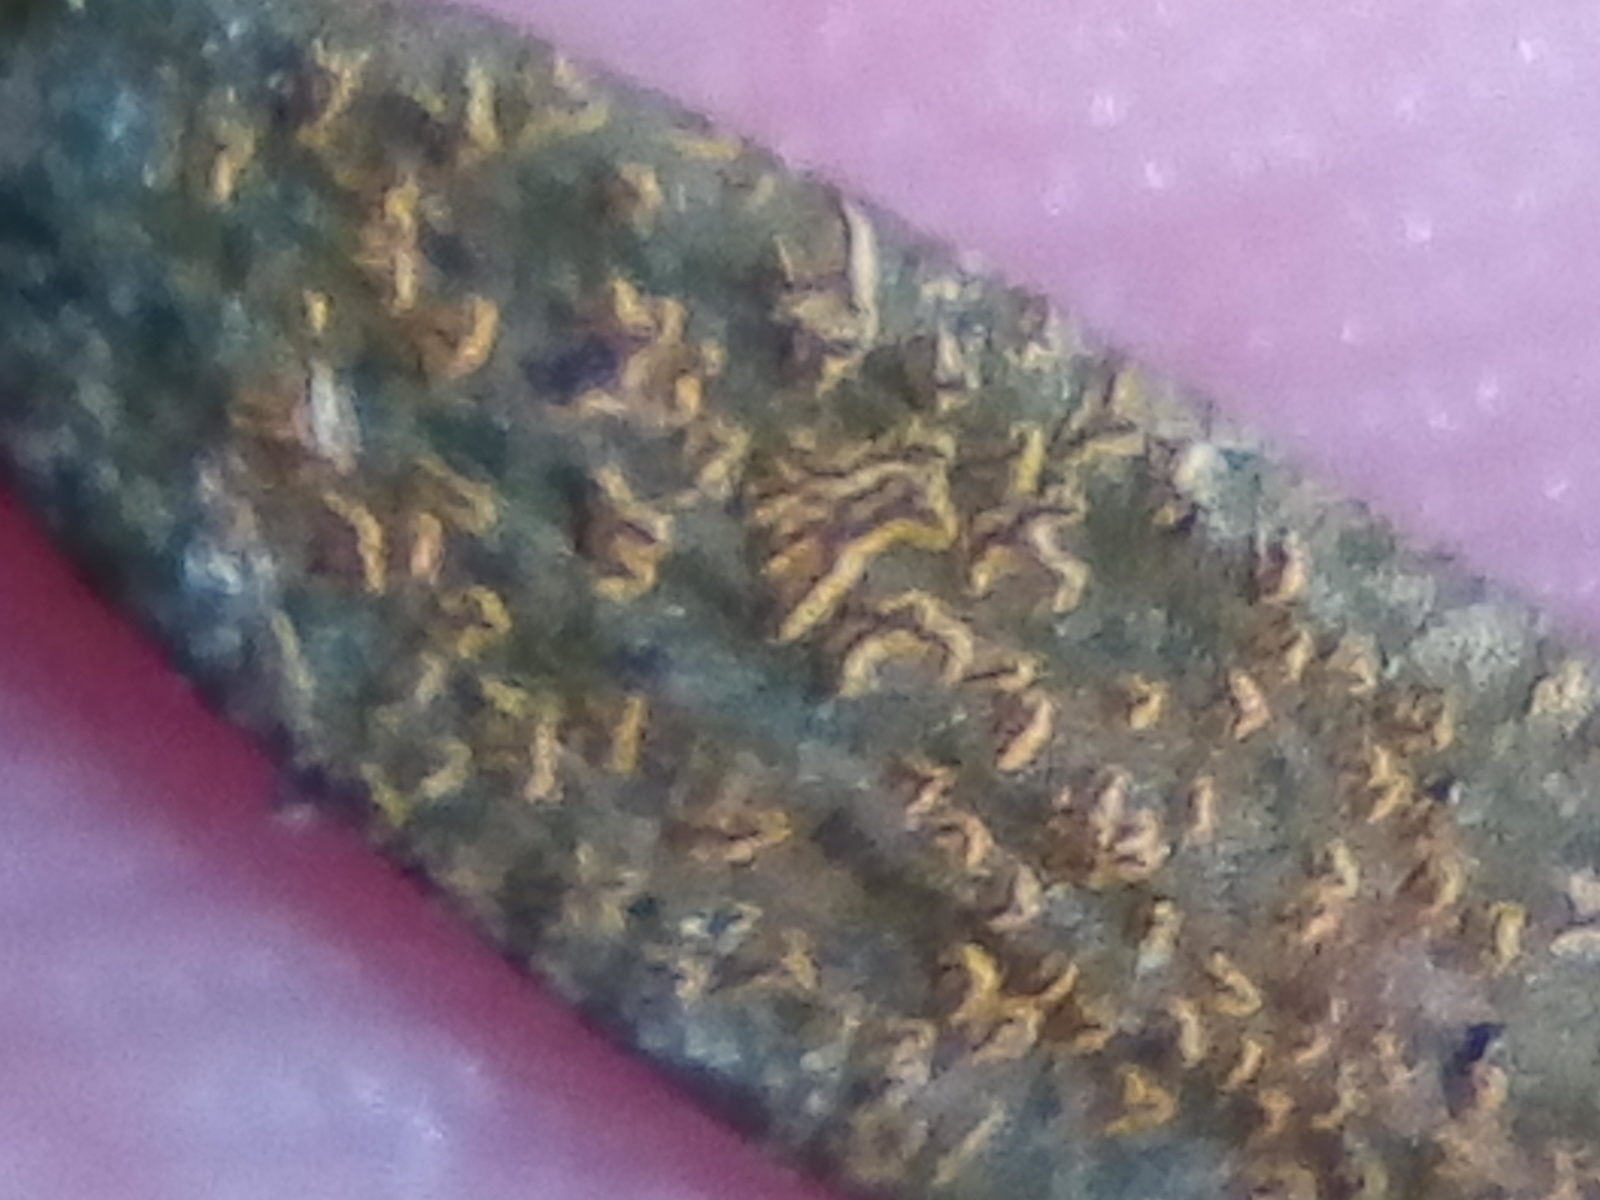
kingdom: Fungi
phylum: Ascomycota
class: Arthoniomycetes
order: Arthoniales
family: Roccellaceae
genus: Enterographa
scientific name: Enterographa bella
